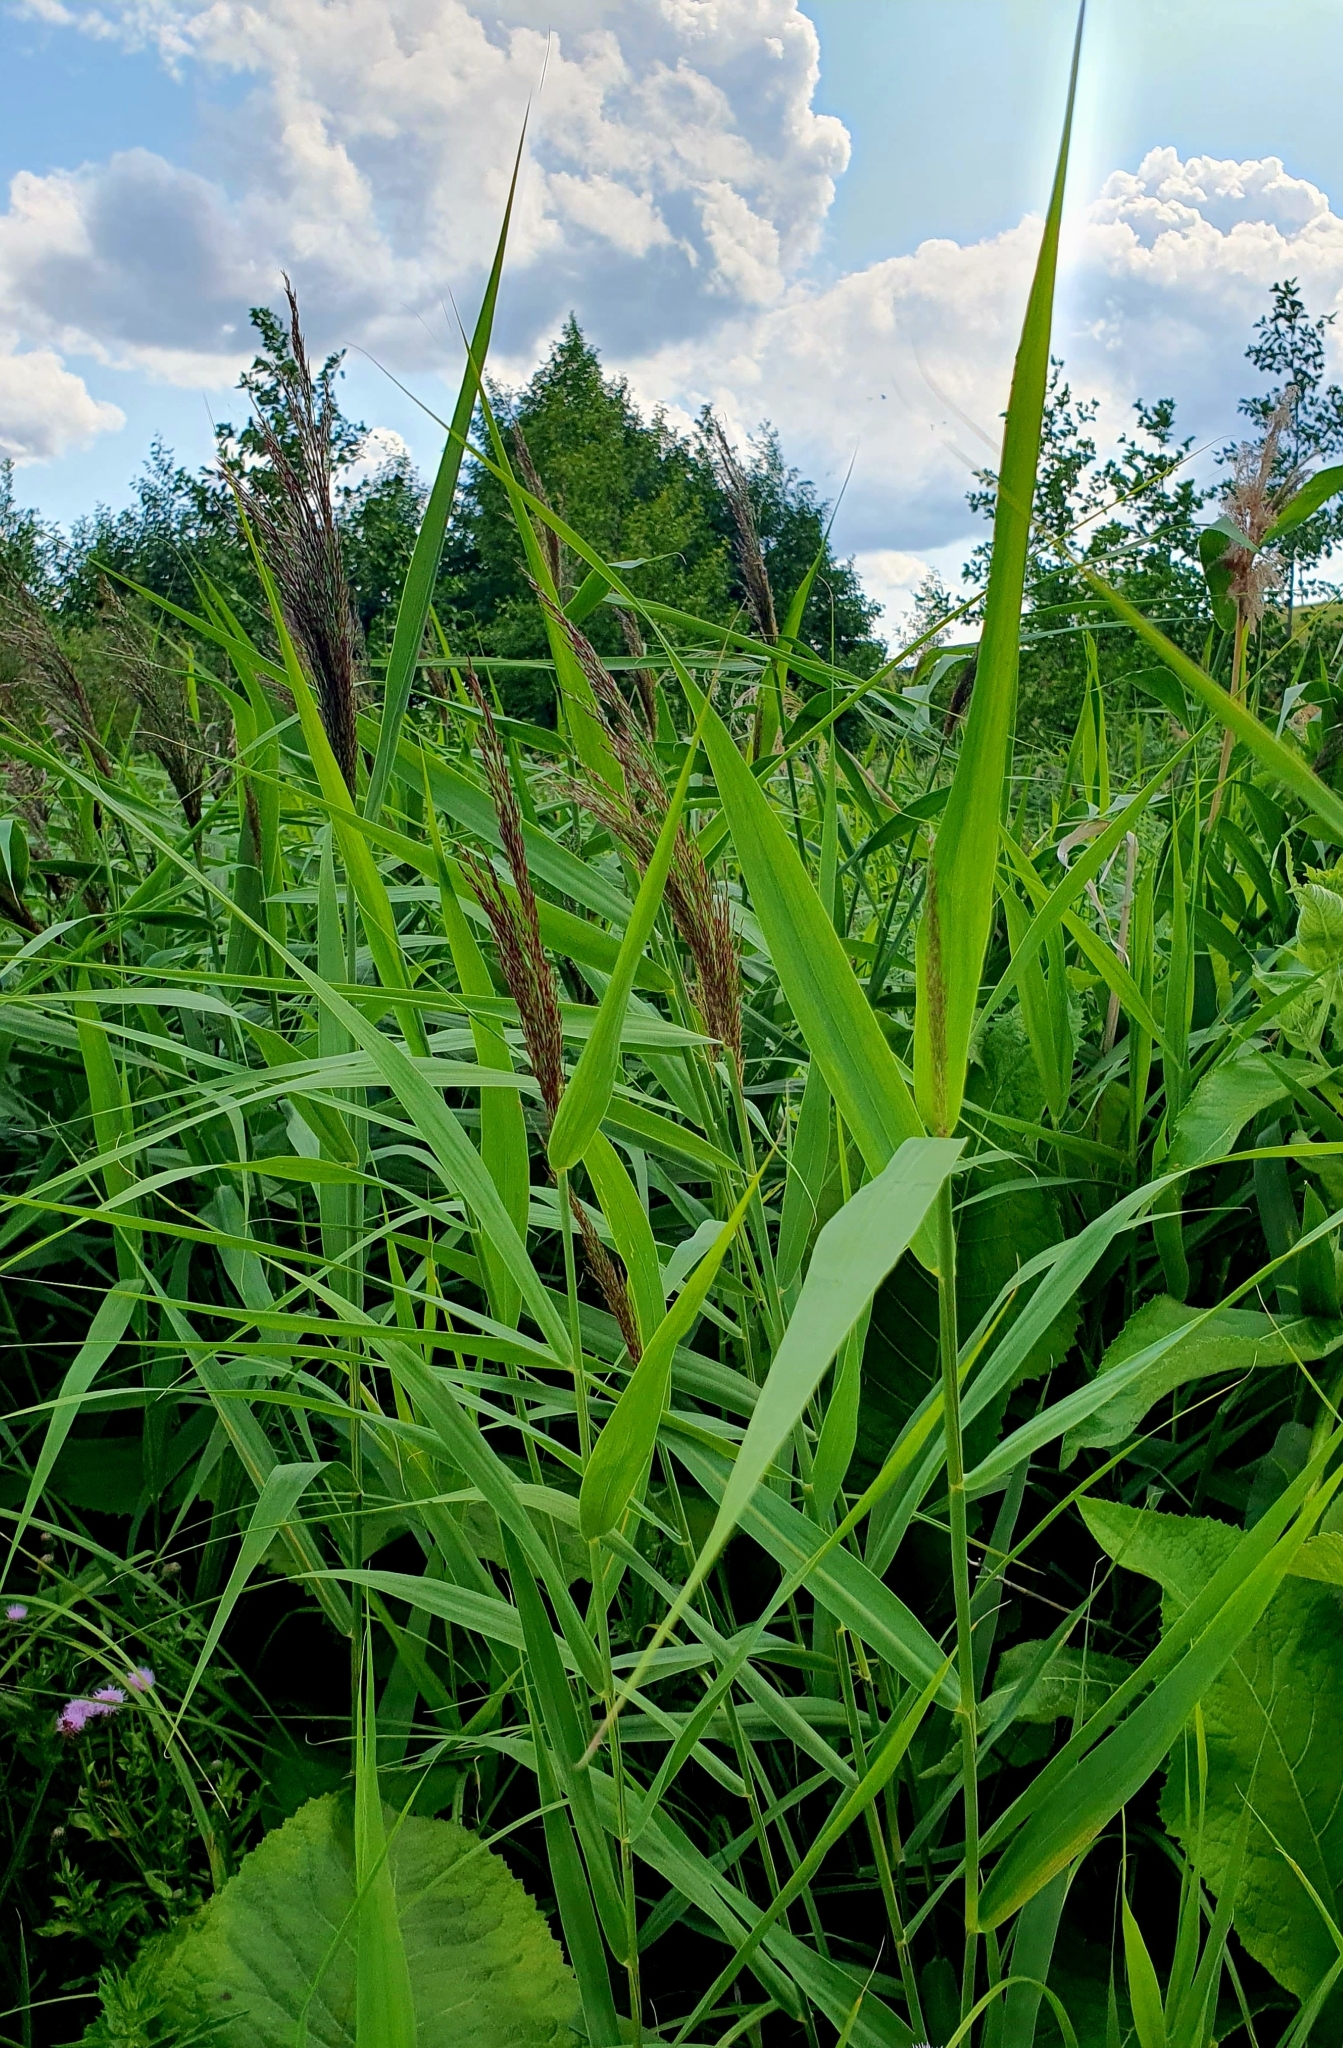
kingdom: Plantae
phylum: Tracheophyta
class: Liliopsida
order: Poales
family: Poaceae
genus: Phragmites
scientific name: Phragmites australis
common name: Common reed
